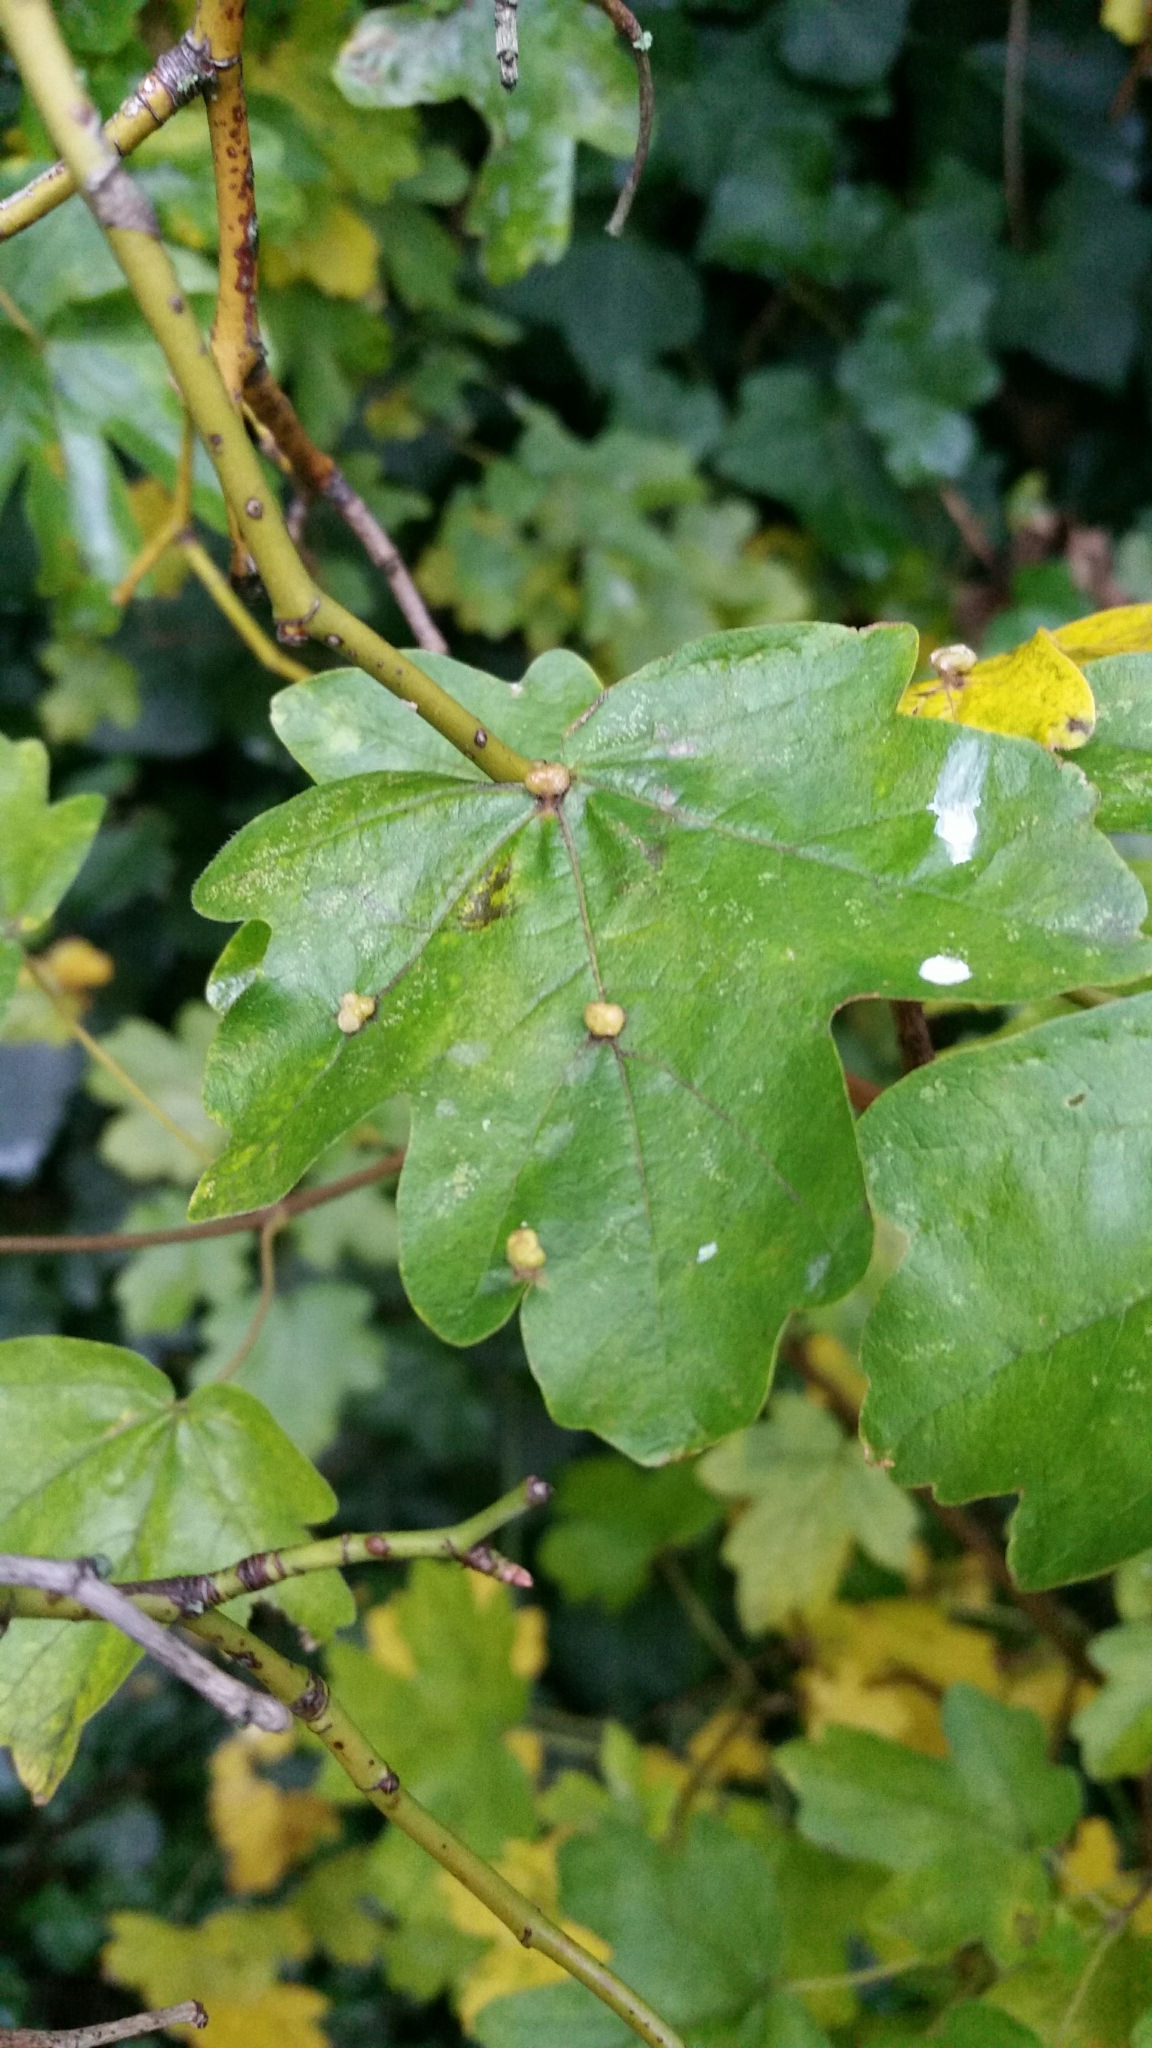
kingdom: Animalia
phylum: Arthropoda
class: Arachnida
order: Trombidiformes
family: Eriophyidae
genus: Aceria
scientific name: Aceria macrochelus
